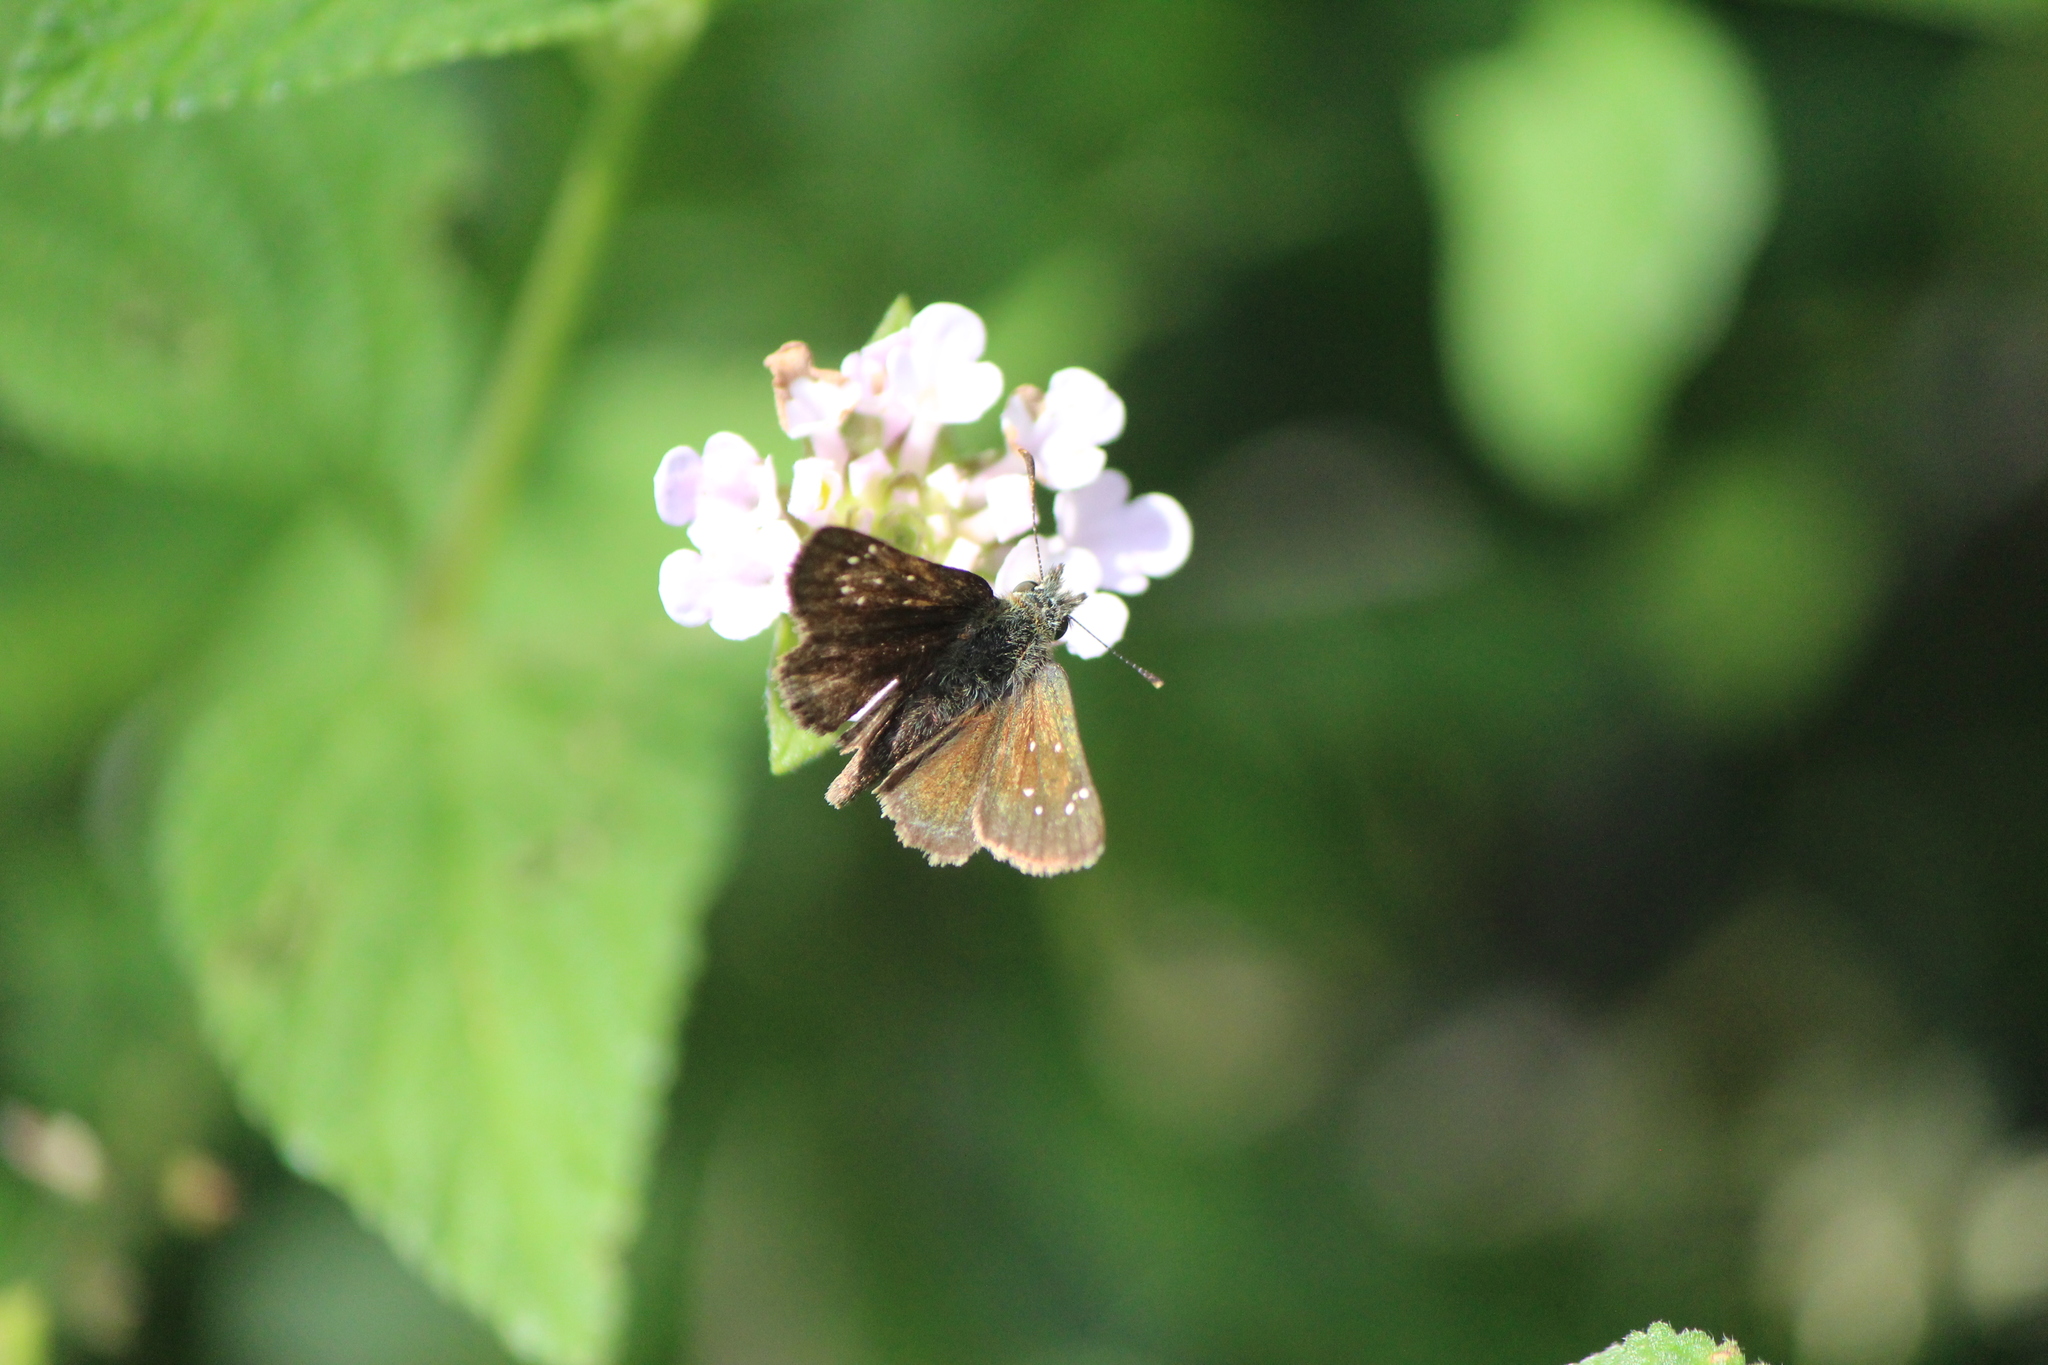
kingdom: Animalia
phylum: Arthropoda
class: Insecta
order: Lepidoptera
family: Hesperiidae
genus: Piruna
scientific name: Piruna cyclosticta
